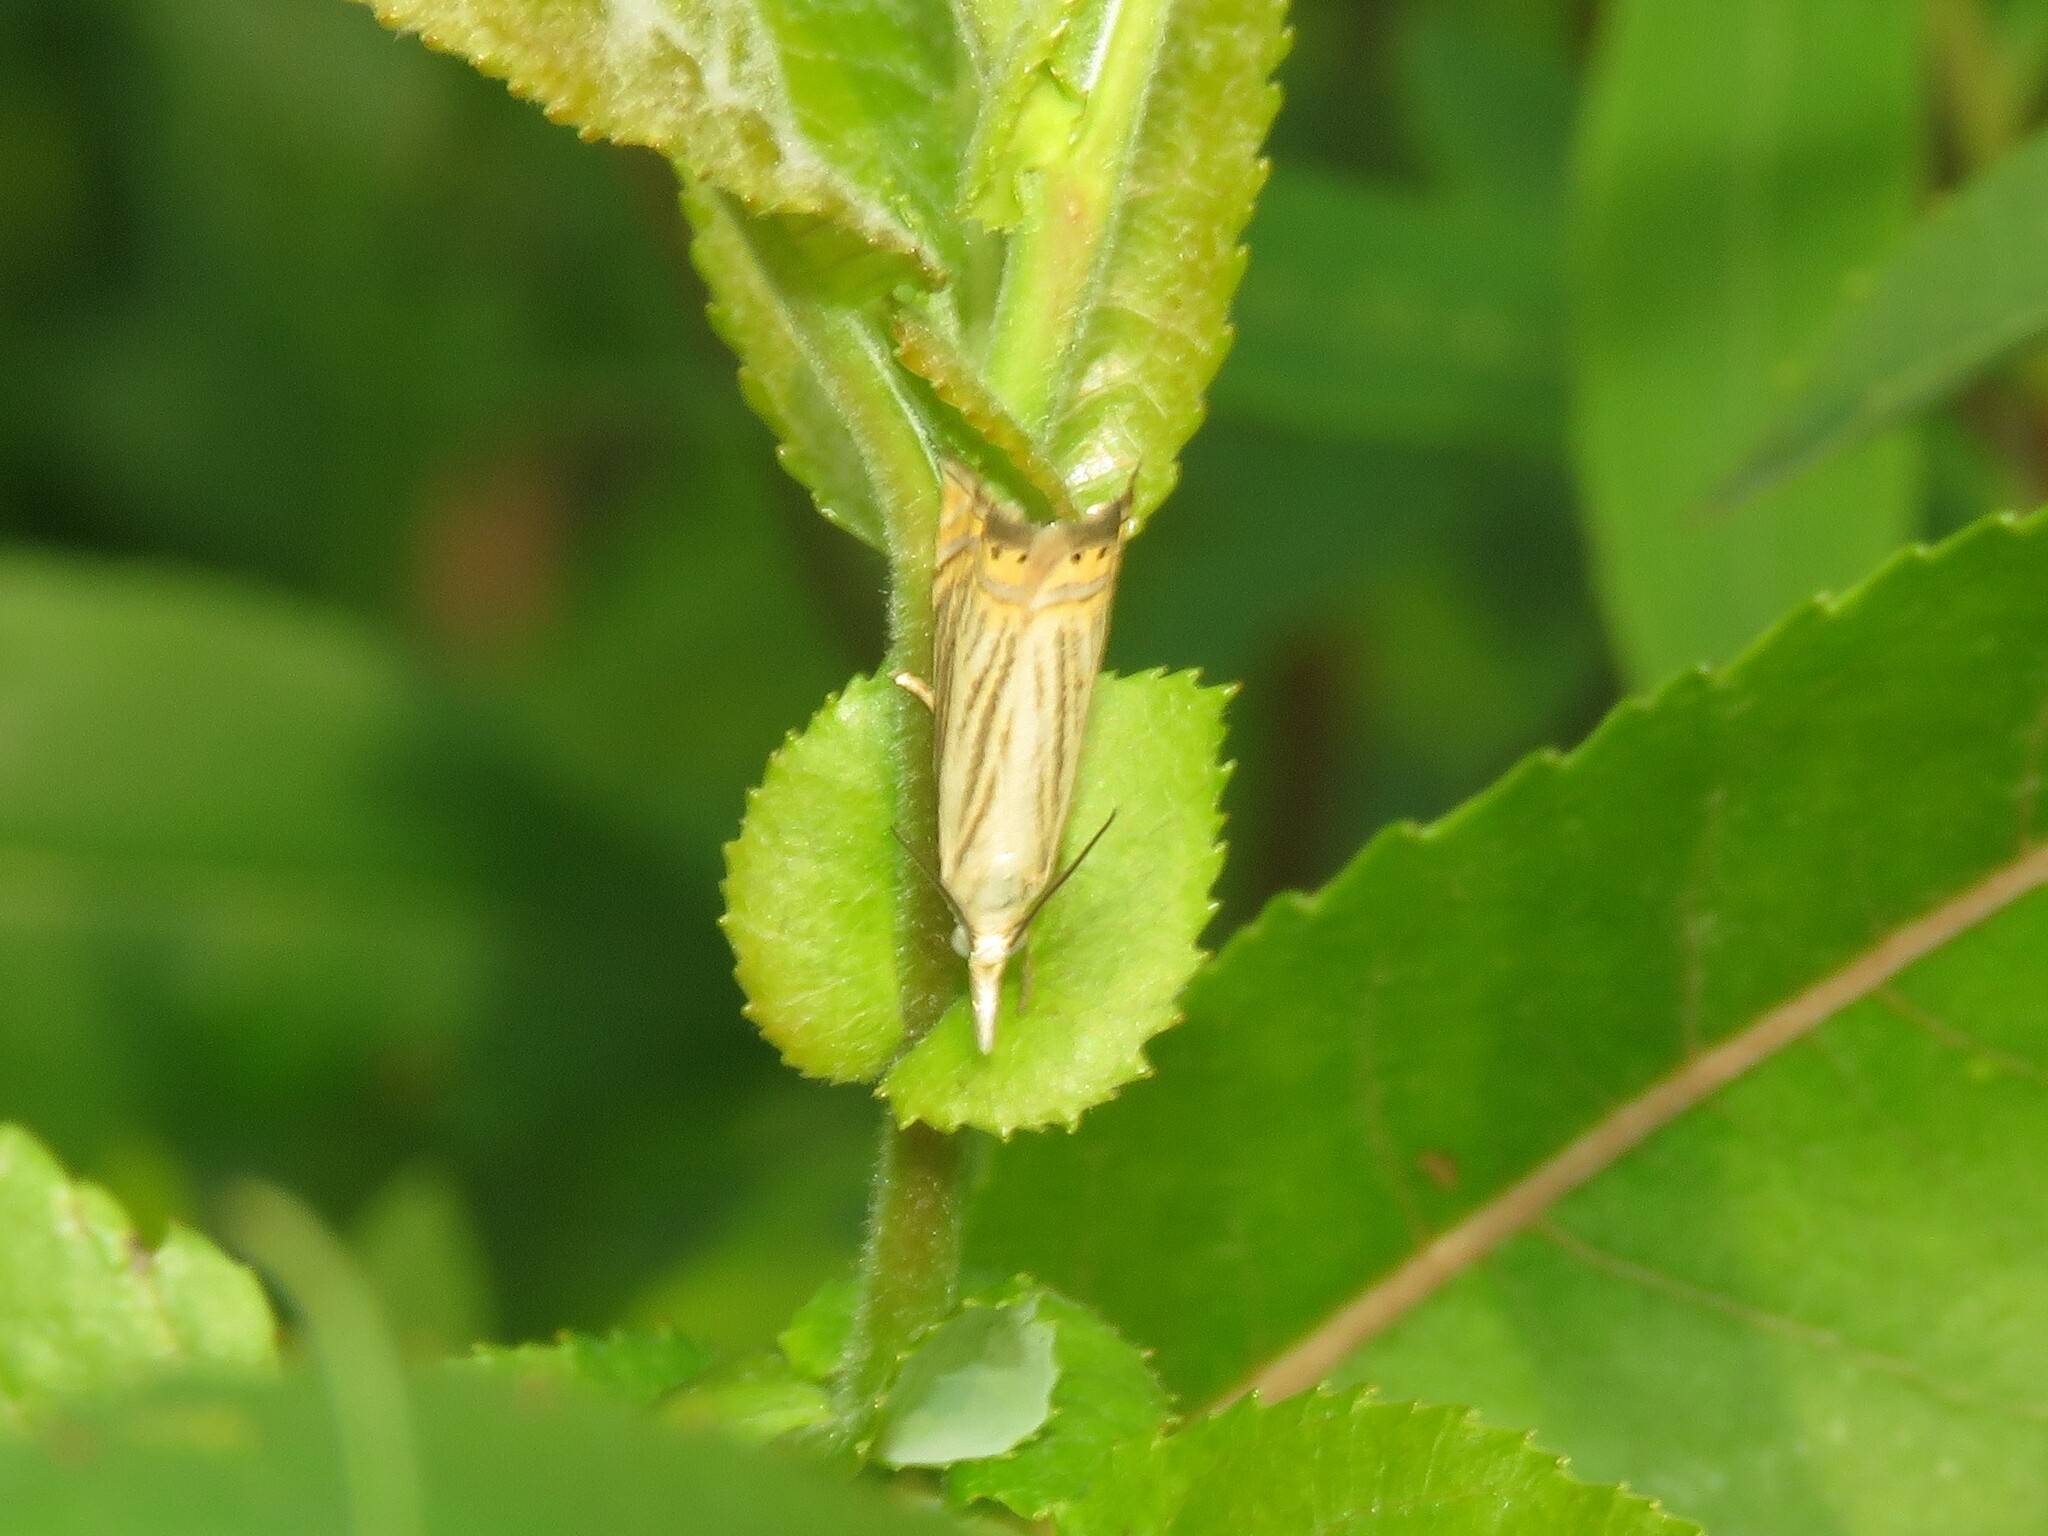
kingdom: Animalia
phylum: Arthropoda
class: Insecta
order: Lepidoptera
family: Crambidae
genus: Chrysoteuchia
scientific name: Chrysoteuchia topiarius
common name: Topiary grass-veneer
